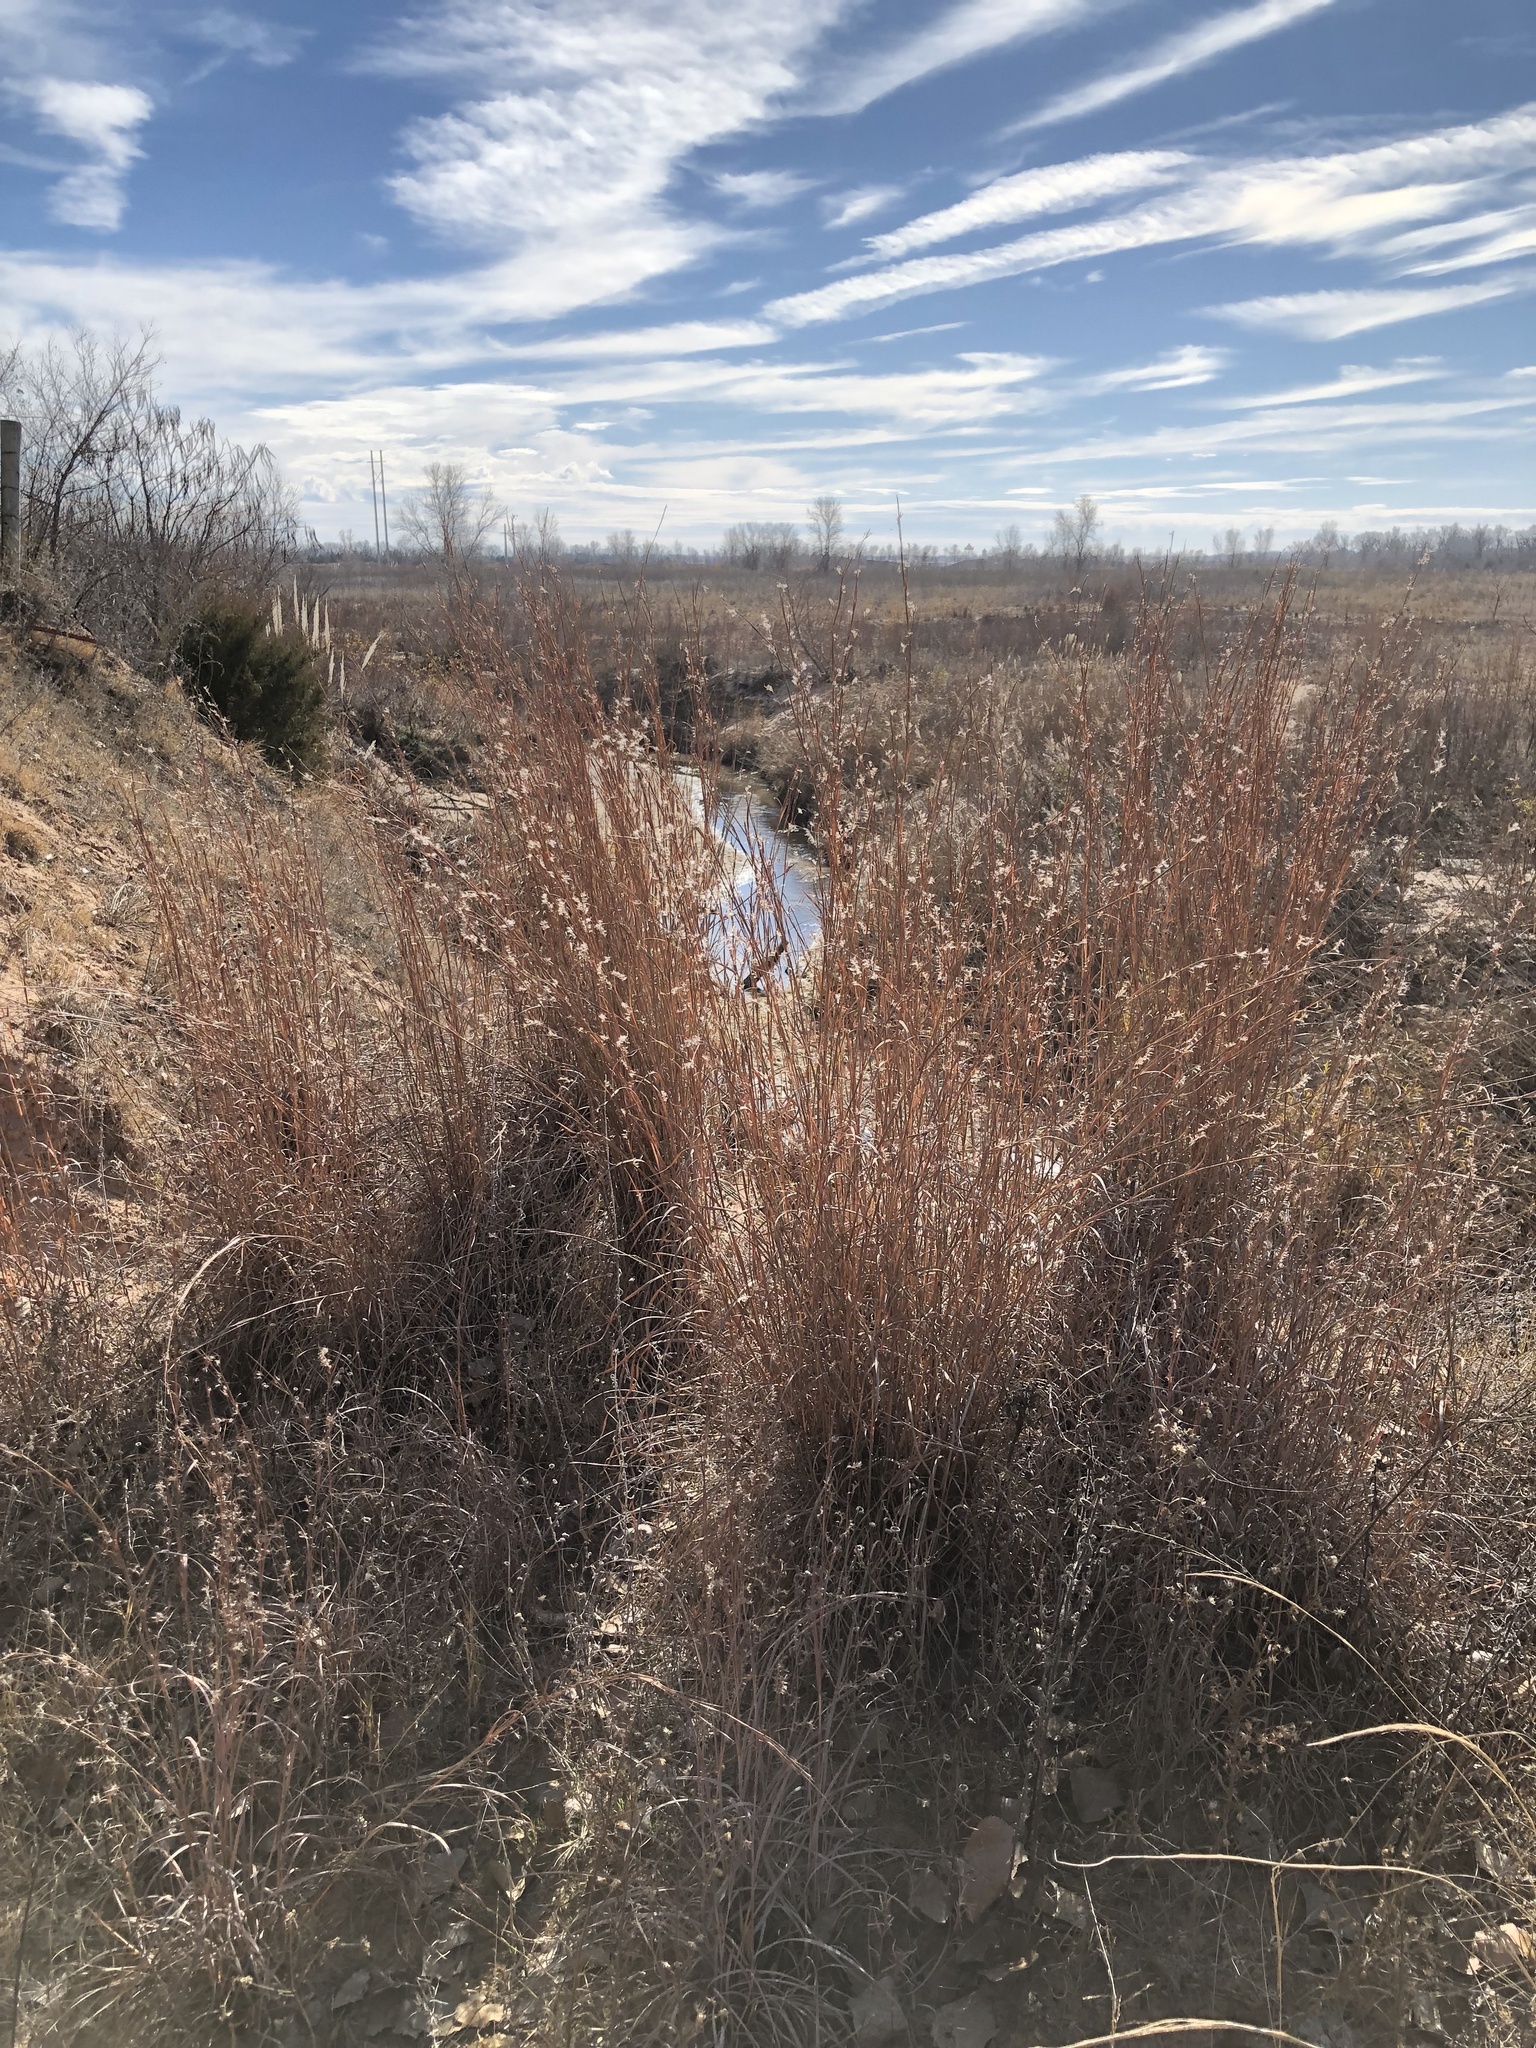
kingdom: Plantae
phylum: Tracheophyta
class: Liliopsida
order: Poales
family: Poaceae
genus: Schizachyrium
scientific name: Schizachyrium scoparium
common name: Little bluestem
